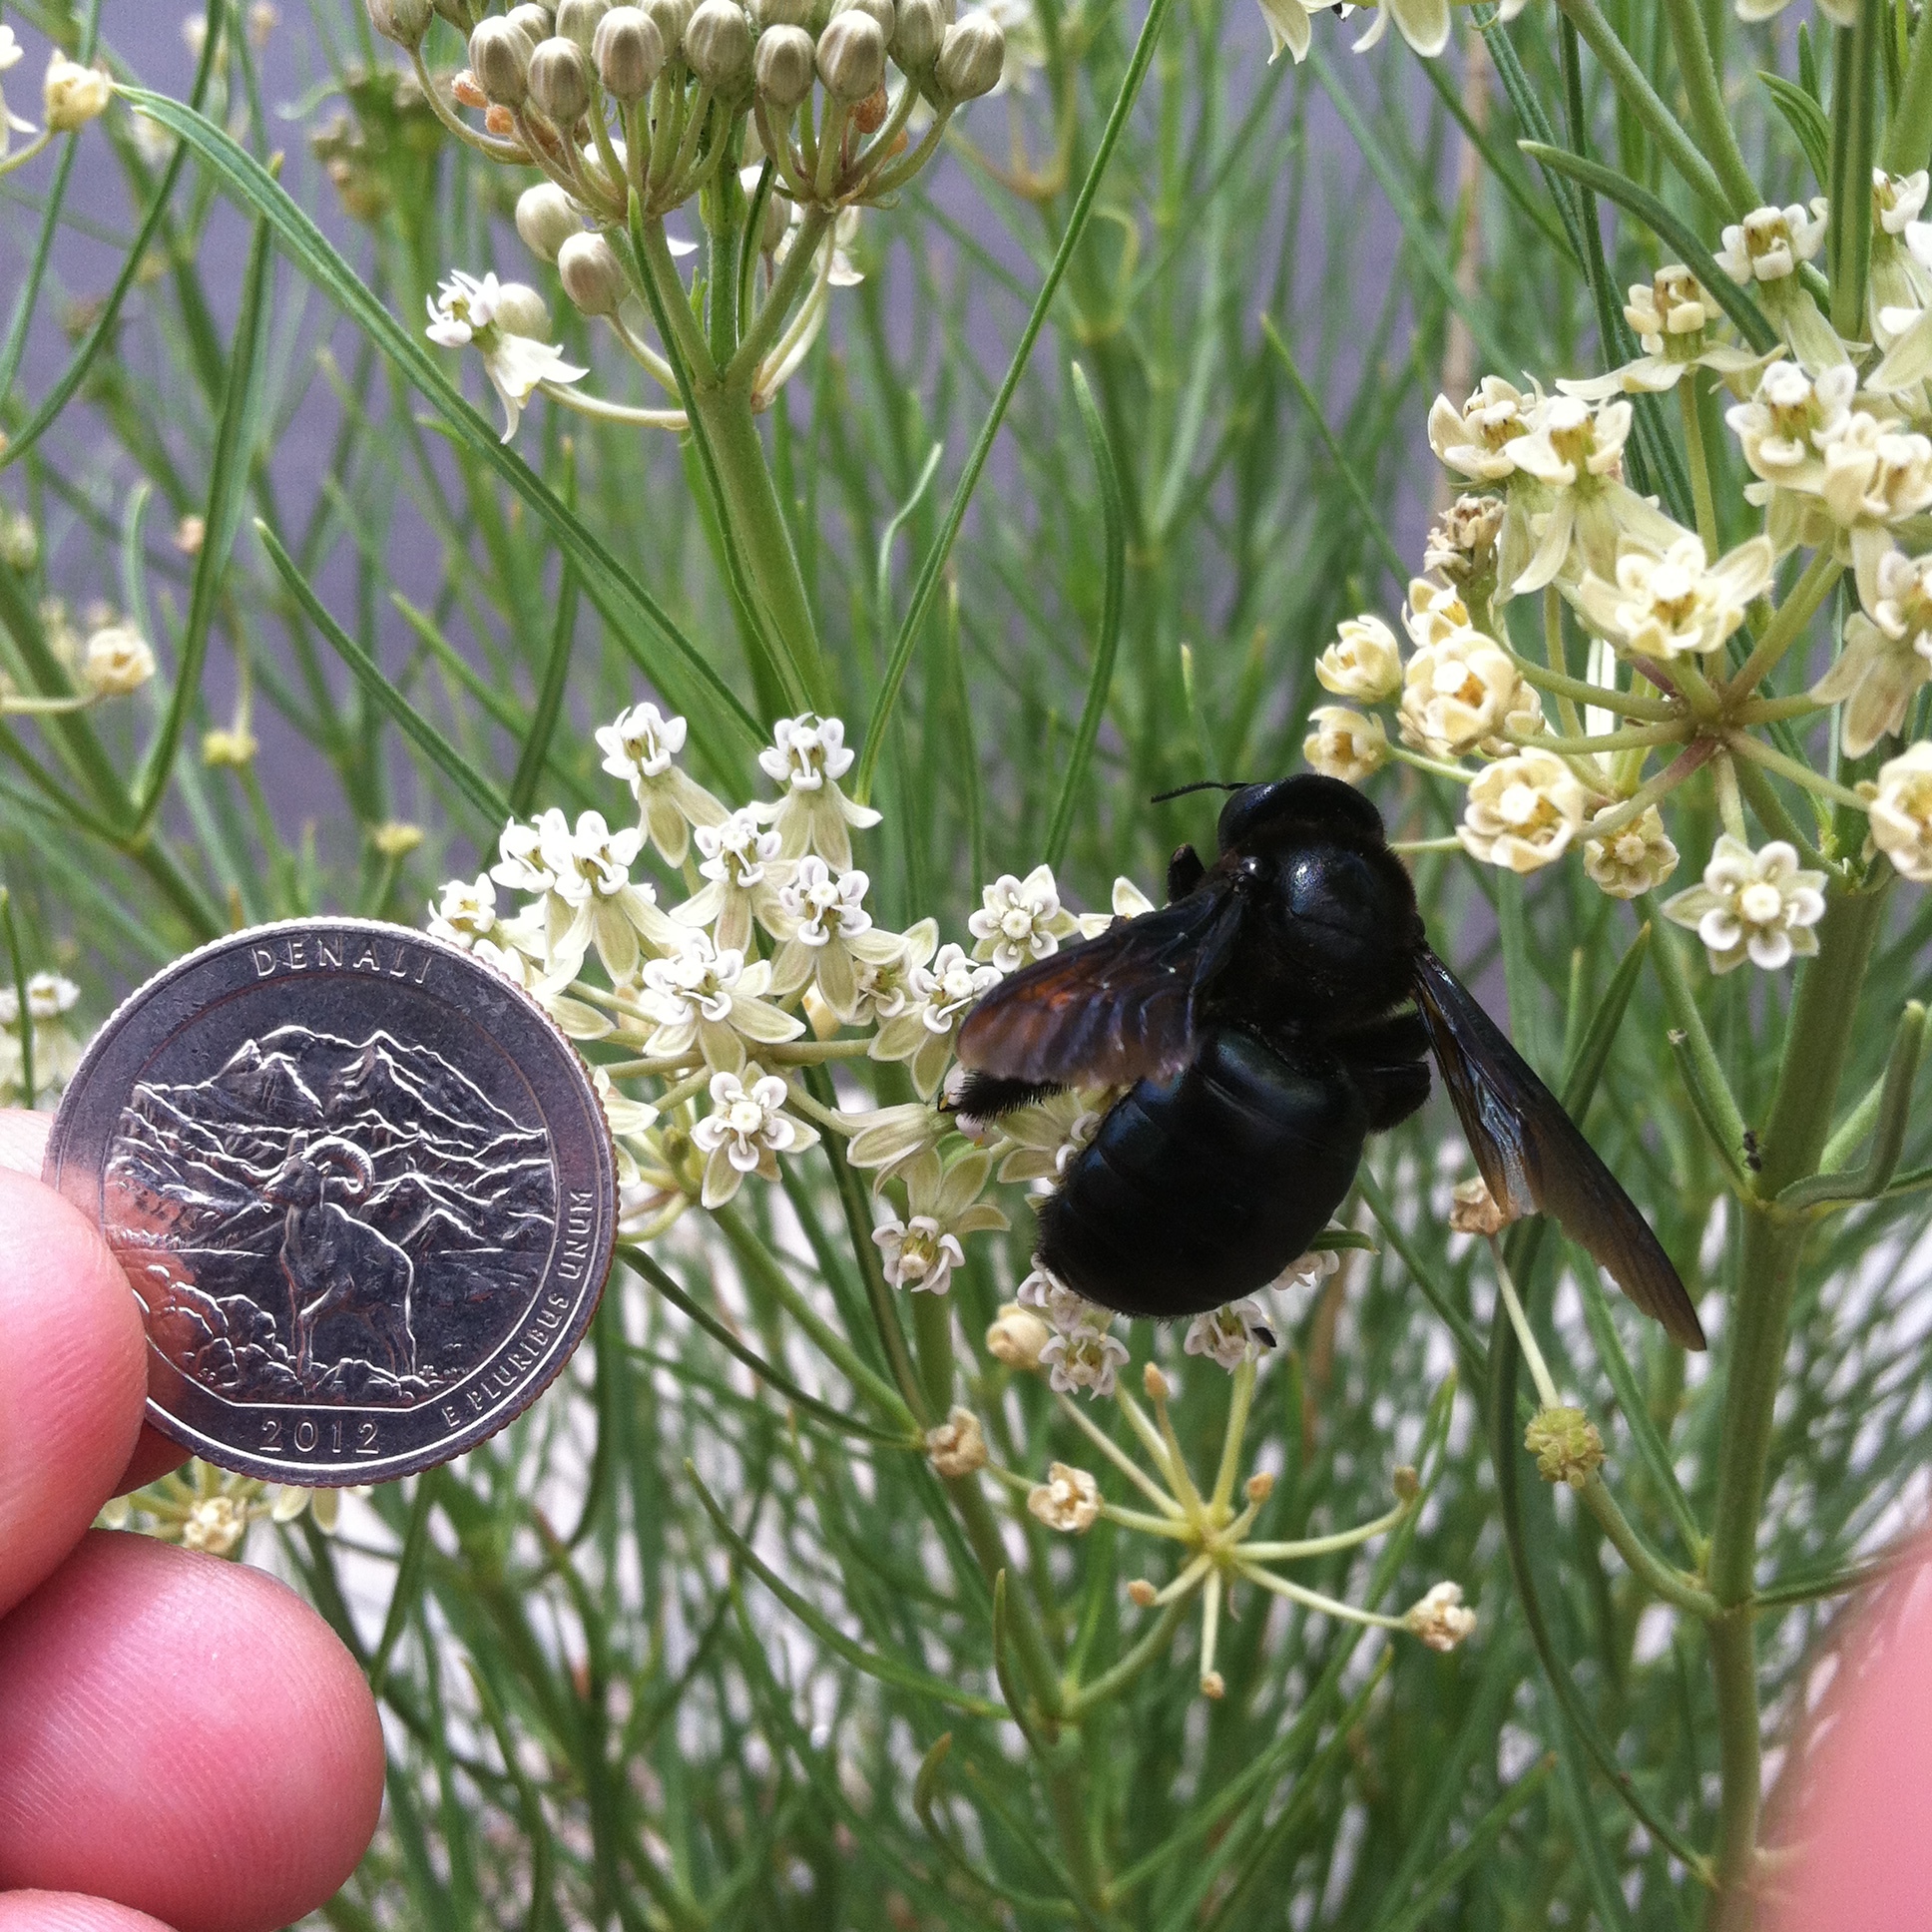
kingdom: Animalia
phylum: Arthropoda
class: Insecta
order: Hymenoptera
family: Apidae
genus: Xylocopa
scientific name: Xylocopa californica
